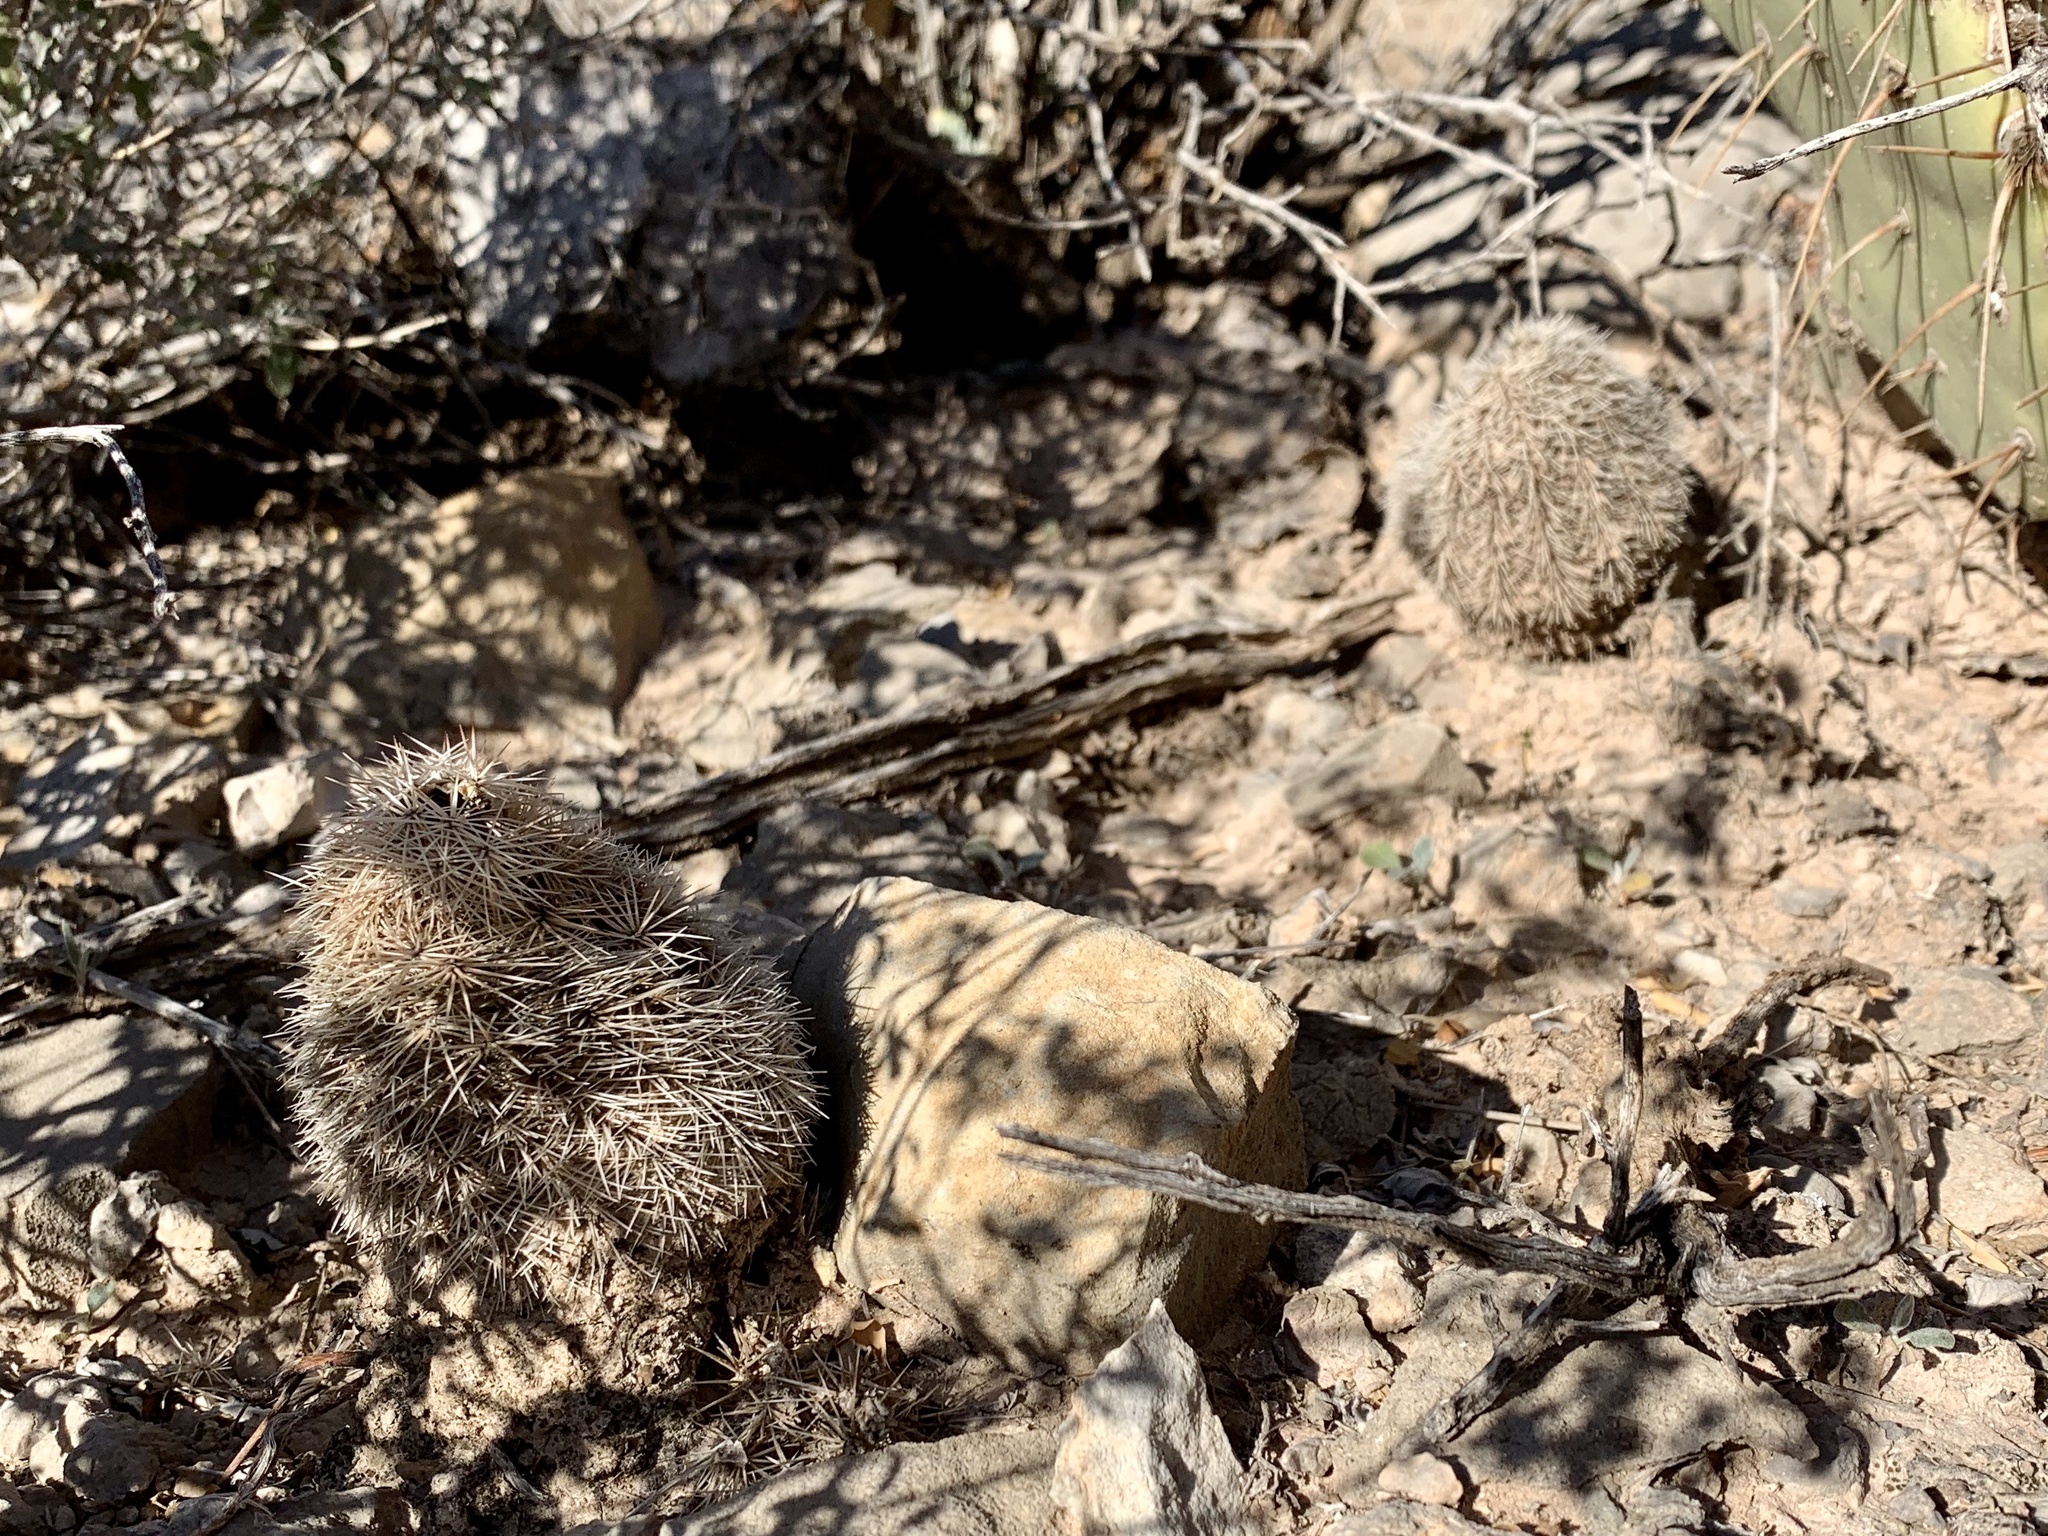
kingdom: Plantae
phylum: Tracheophyta
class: Magnoliopsida
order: Caryophyllales
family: Cactaceae
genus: Echinocereus
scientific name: Echinocereus coccineus
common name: Scarlet hedgehog cactus
